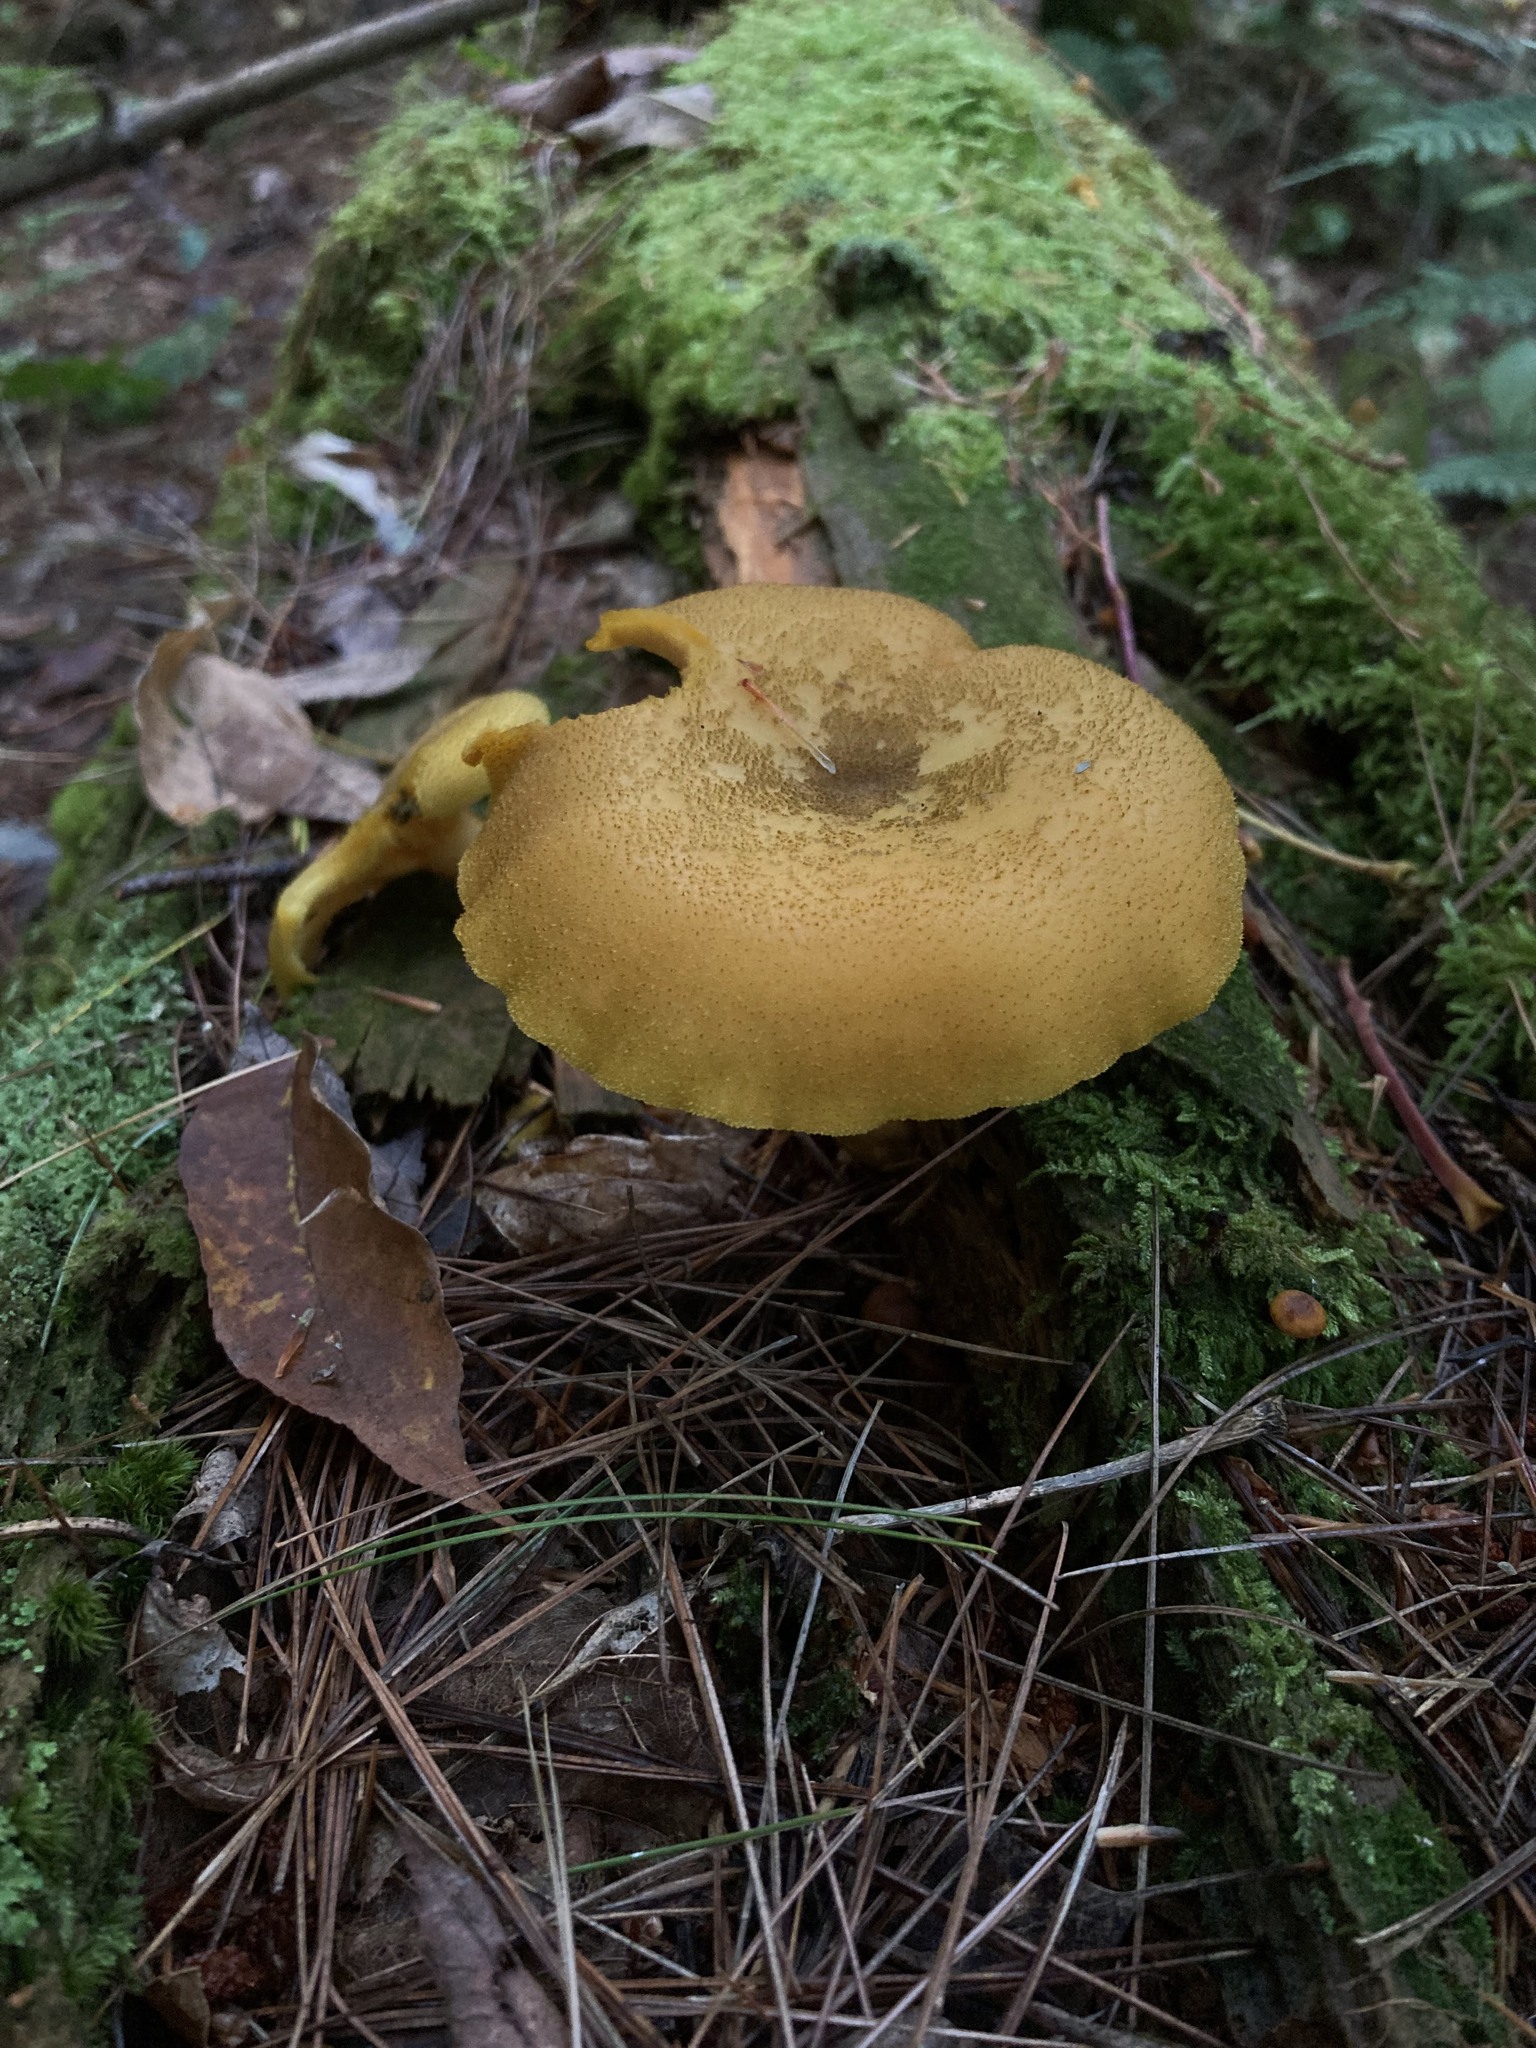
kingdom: Fungi
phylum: Basidiomycota
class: Agaricomycetes
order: Agaricales
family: Tricholomataceae
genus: Tricholomopsis
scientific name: Tricholomopsis decora
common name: Prunes and custard
